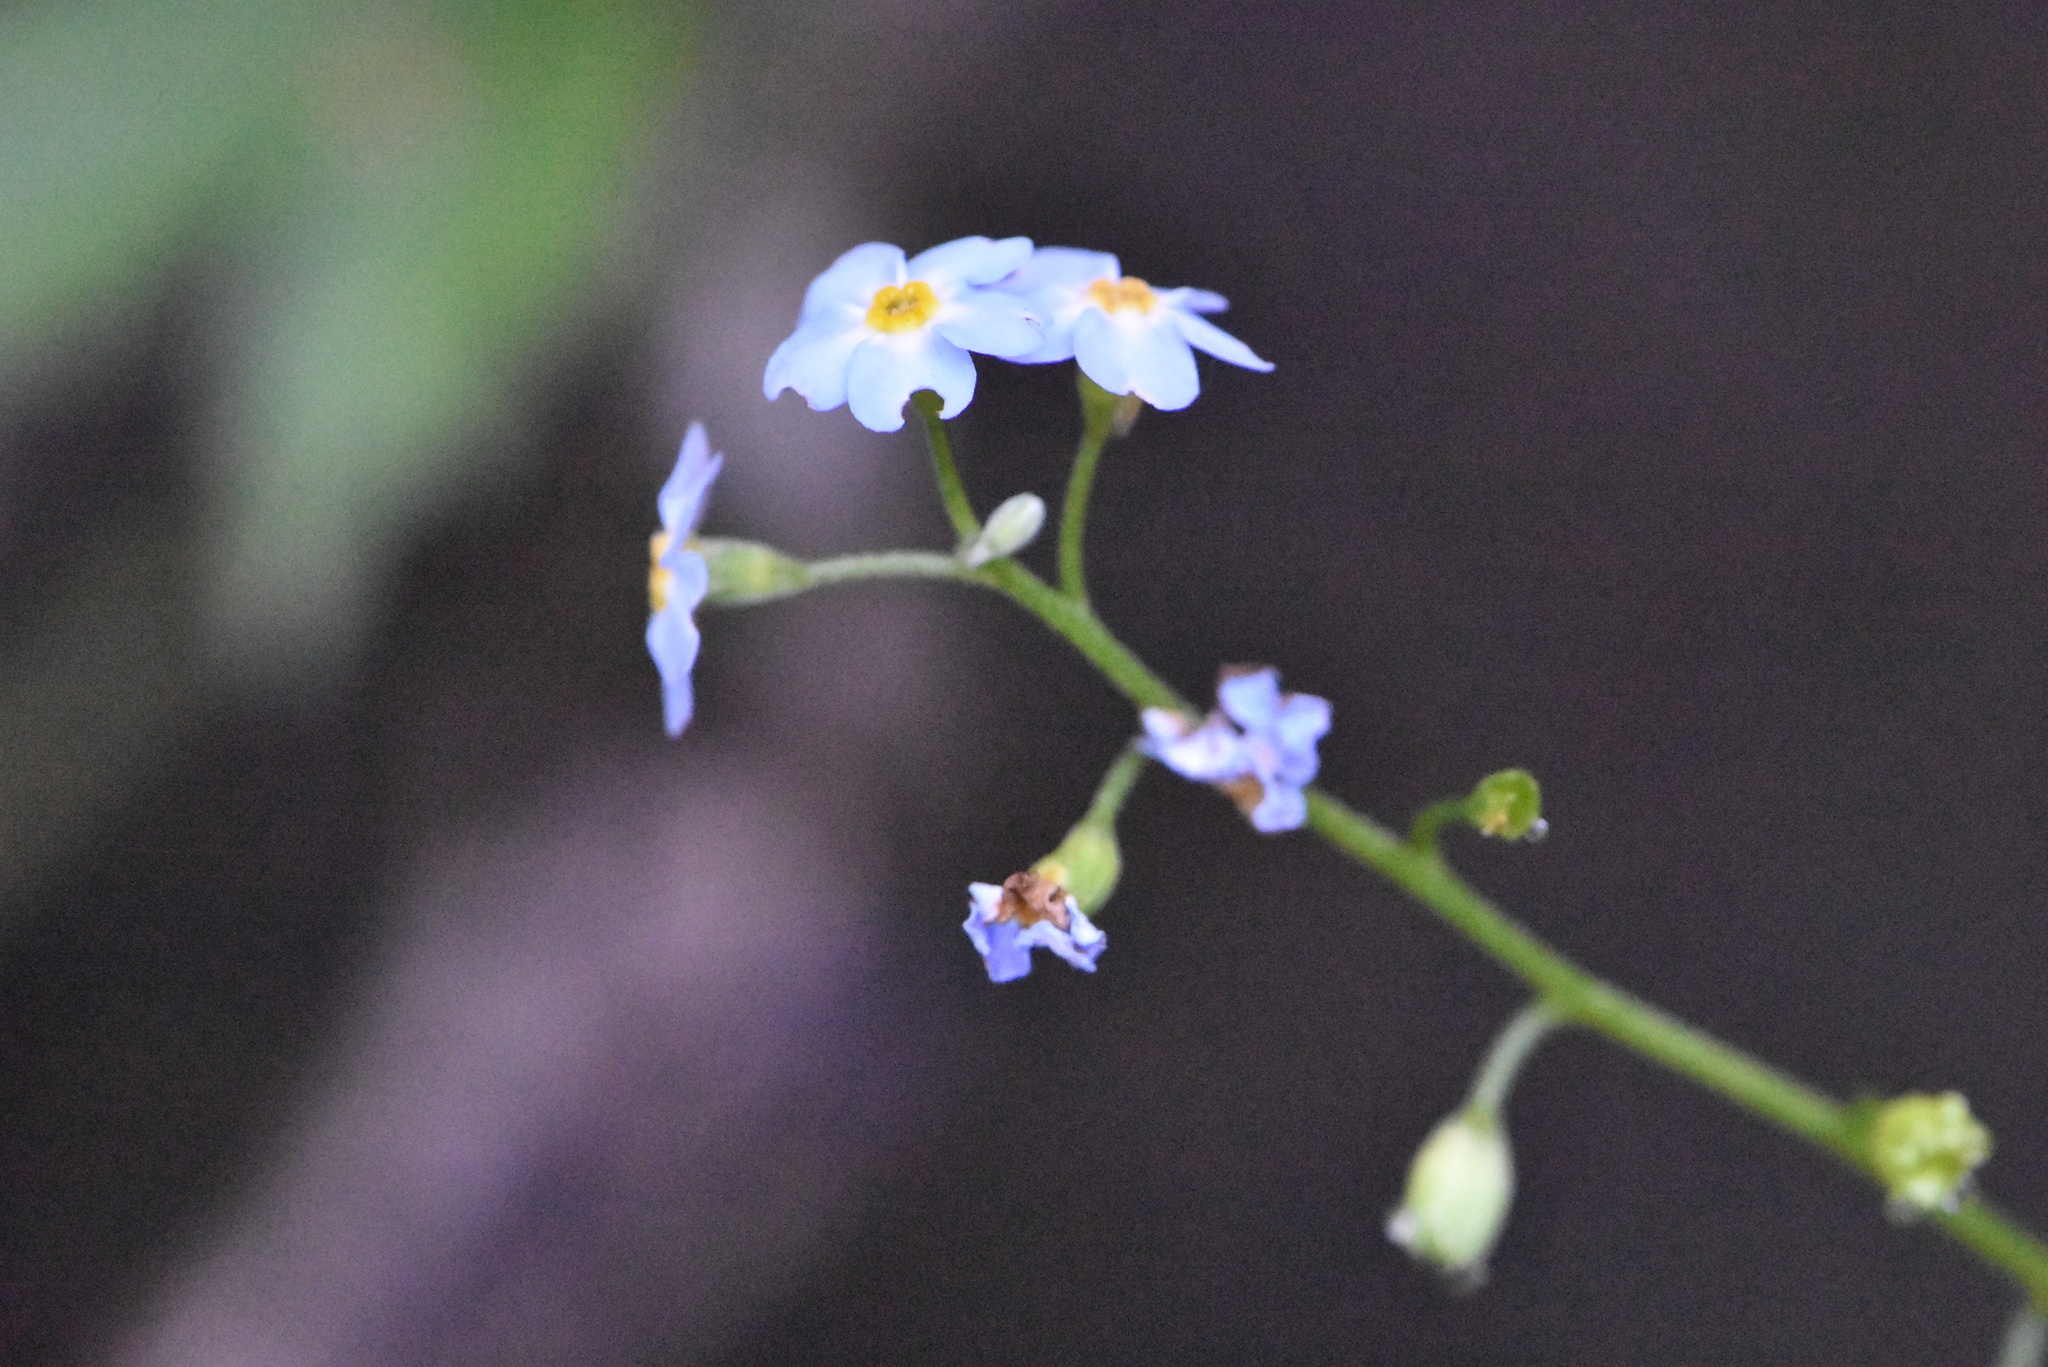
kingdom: Plantae
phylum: Tracheophyta
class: Magnoliopsida
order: Boraginales
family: Boraginaceae
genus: Myosotis
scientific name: Myosotis scorpioides
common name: Water forget-me-not
